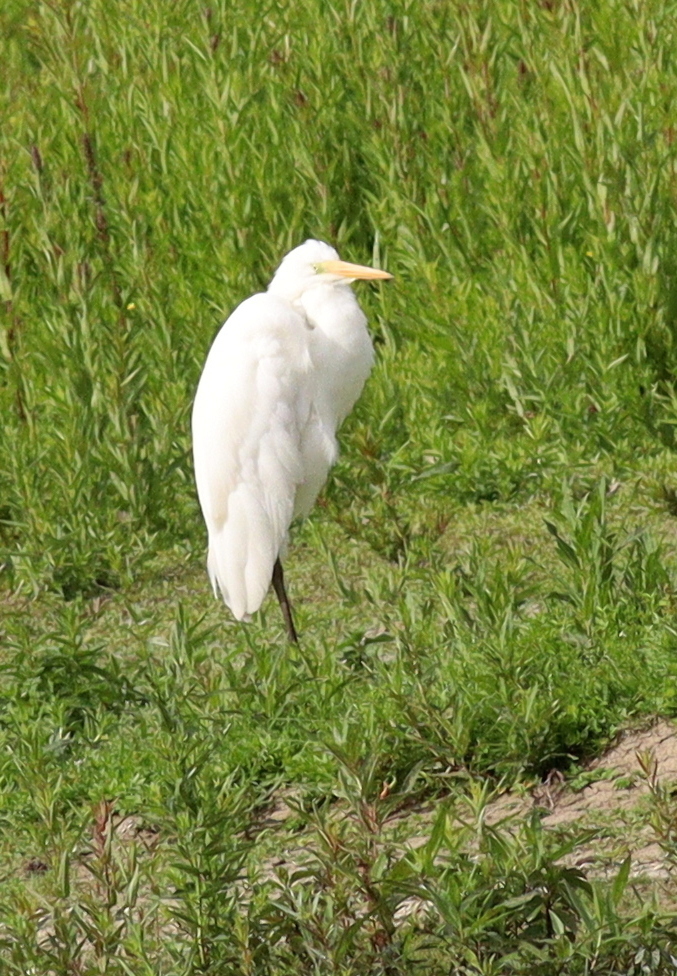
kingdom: Animalia
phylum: Chordata
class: Aves
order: Pelecaniformes
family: Ardeidae
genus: Ardea
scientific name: Ardea alba
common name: Great egret
